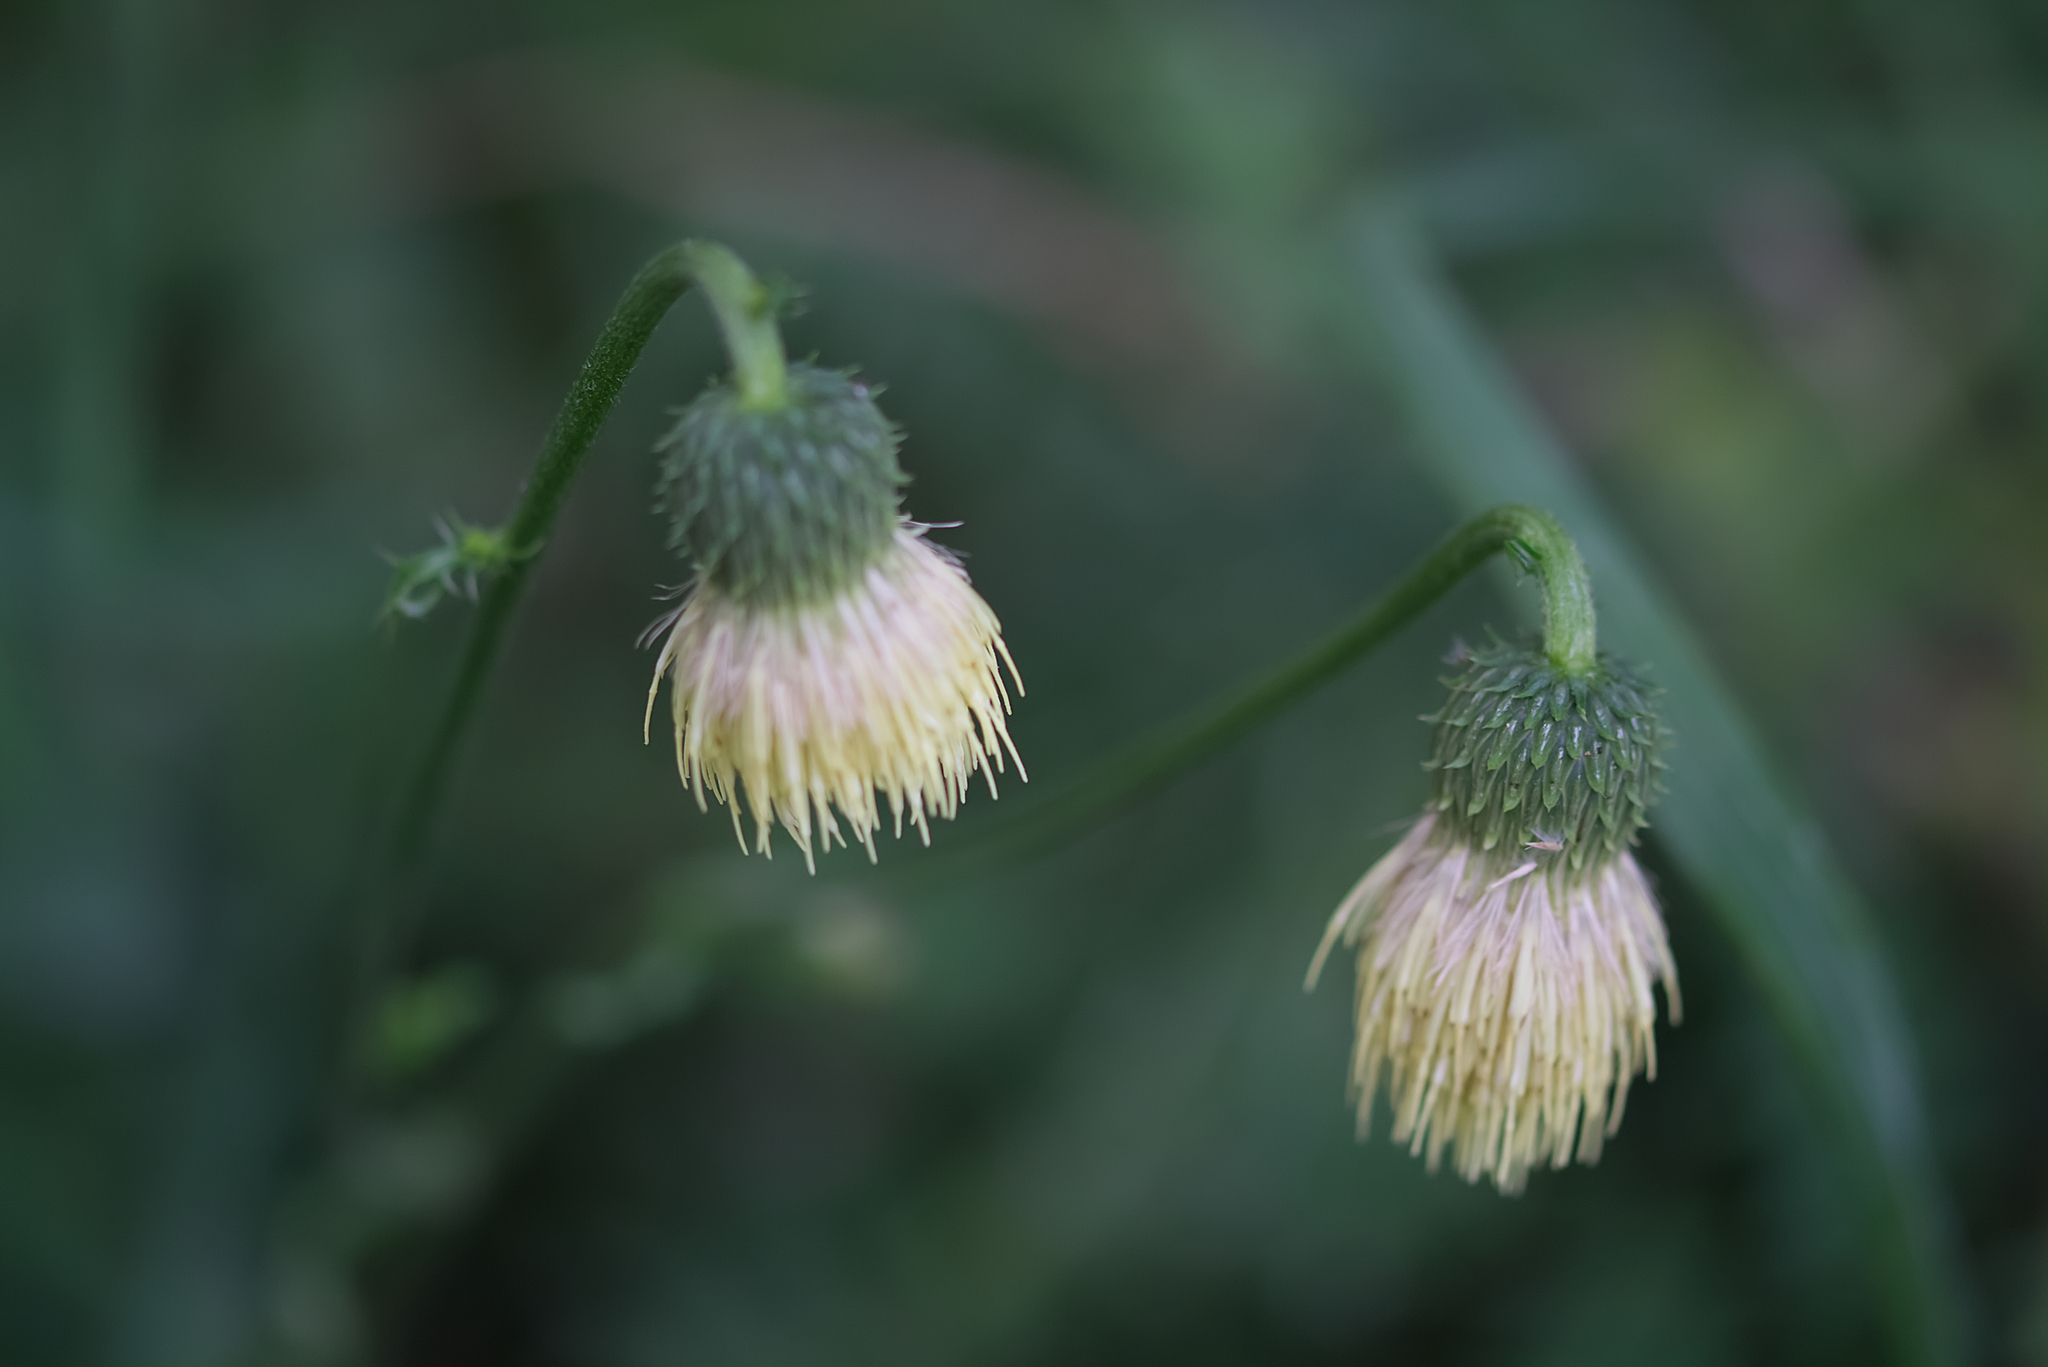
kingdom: Plantae
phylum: Tracheophyta
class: Magnoliopsida
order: Asterales
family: Asteraceae
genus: Cirsium
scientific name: Cirsium erisithales
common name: Yellow thistle
